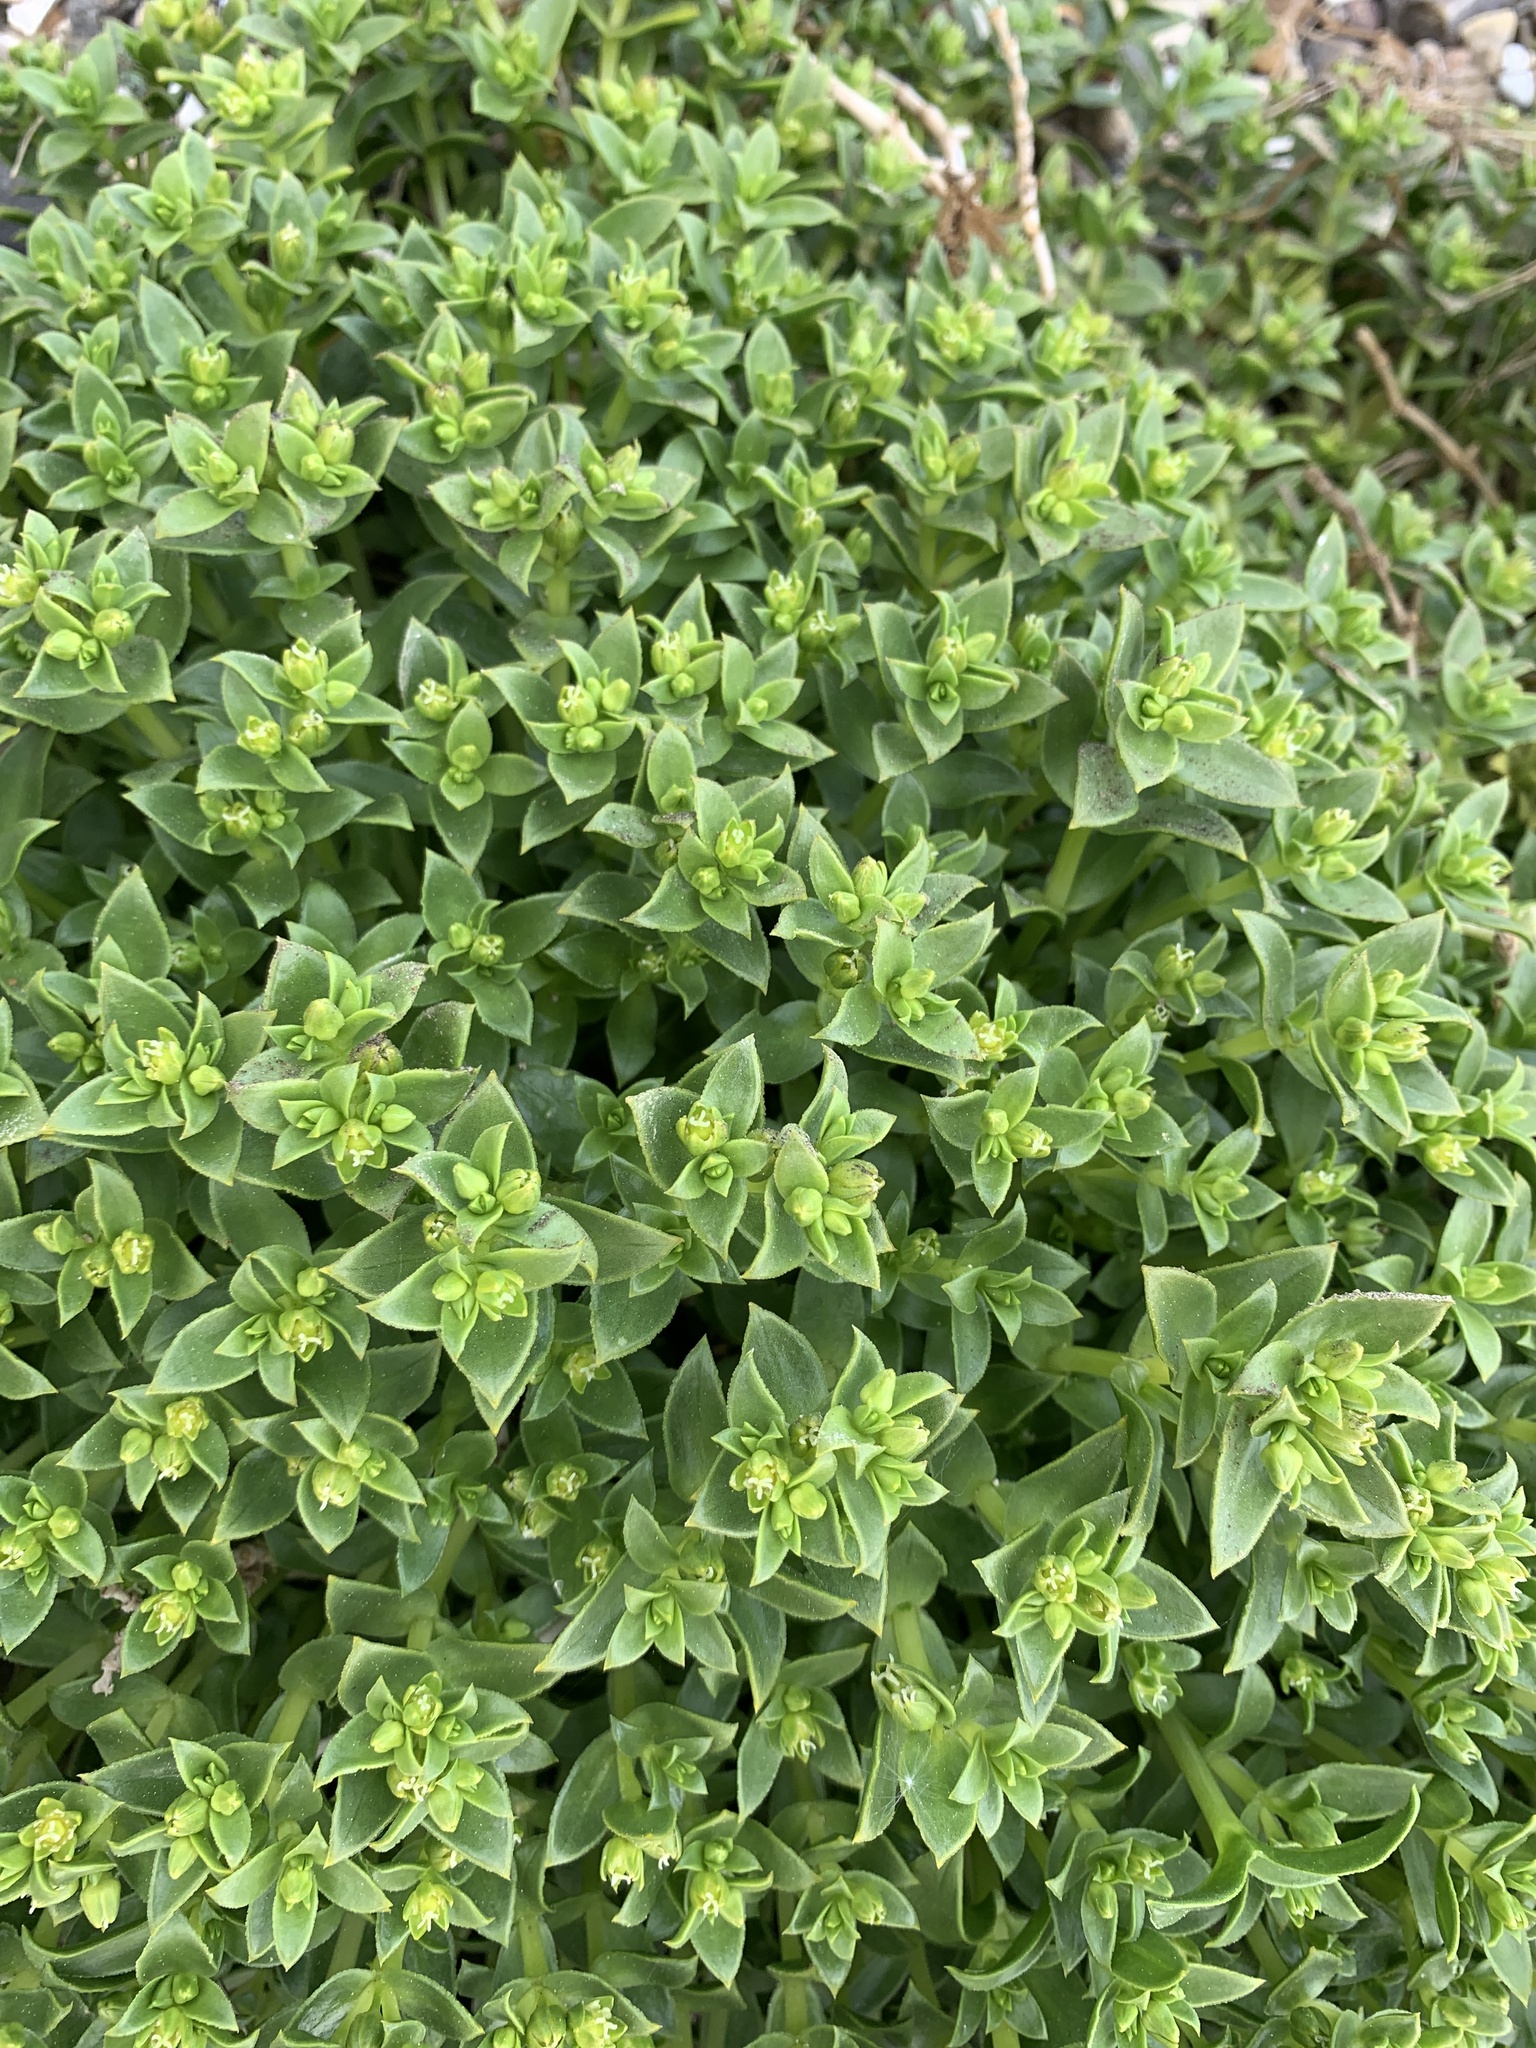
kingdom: Plantae
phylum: Tracheophyta
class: Magnoliopsida
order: Caryophyllales
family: Caryophyllaceae
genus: Honckenya
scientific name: Honckenya peploides
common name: Sea sandwort
